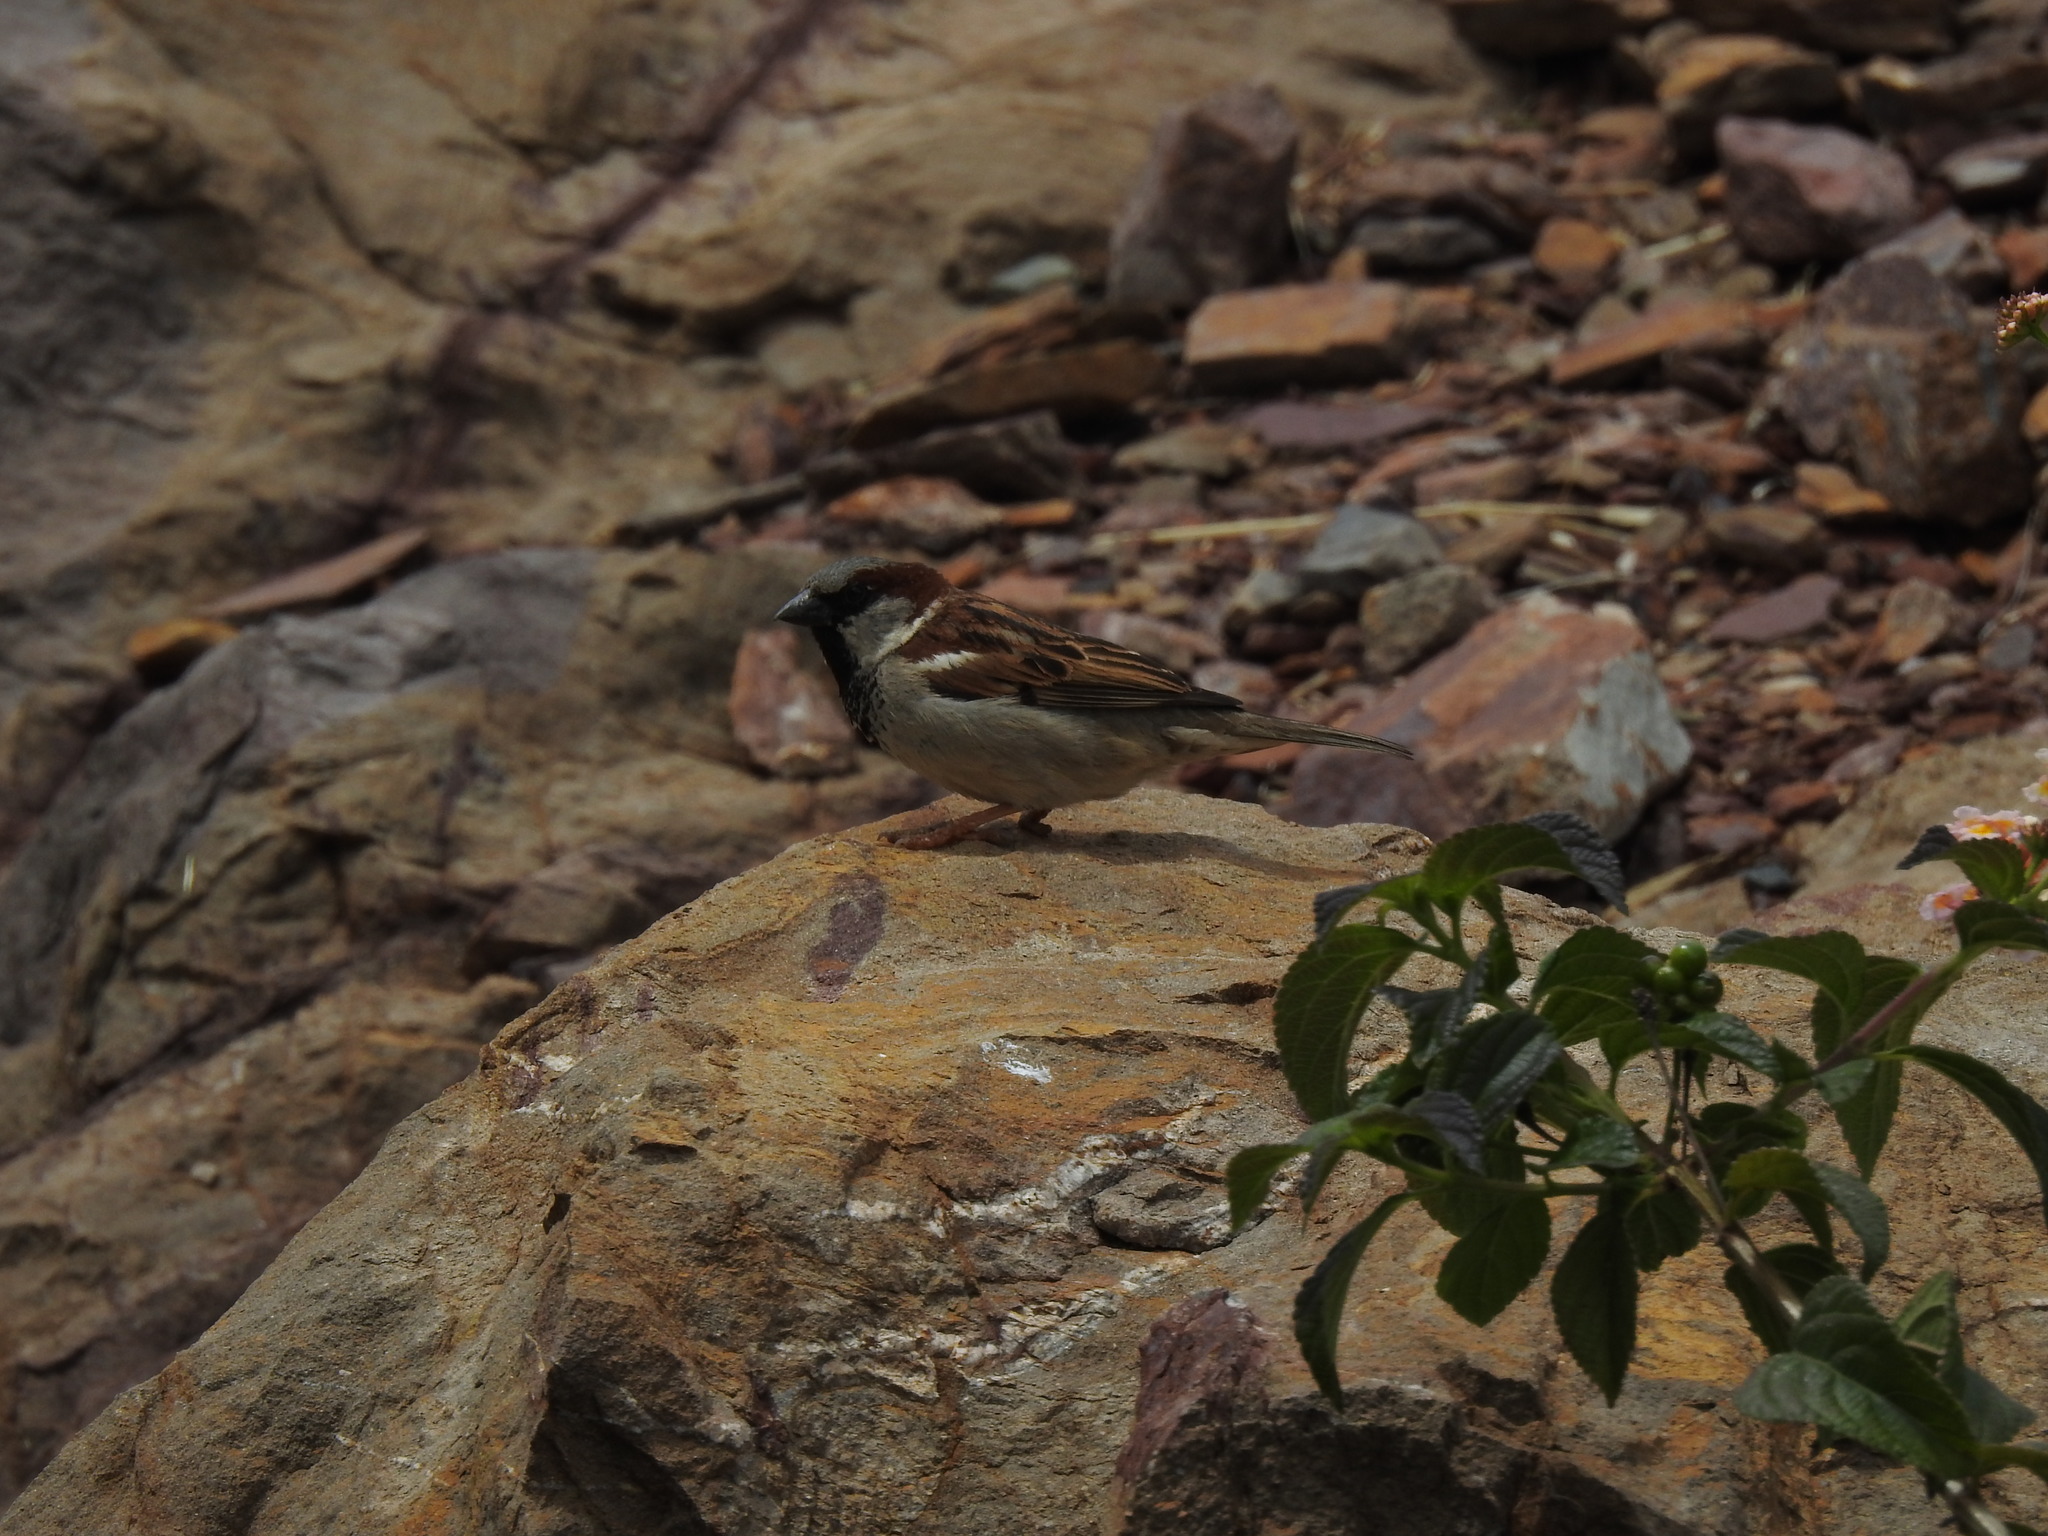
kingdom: Animalia
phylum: Chordata
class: Aves
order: Passeriformes
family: Passeridae
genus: Passer
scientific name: Passer domesticus
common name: House sparrow
